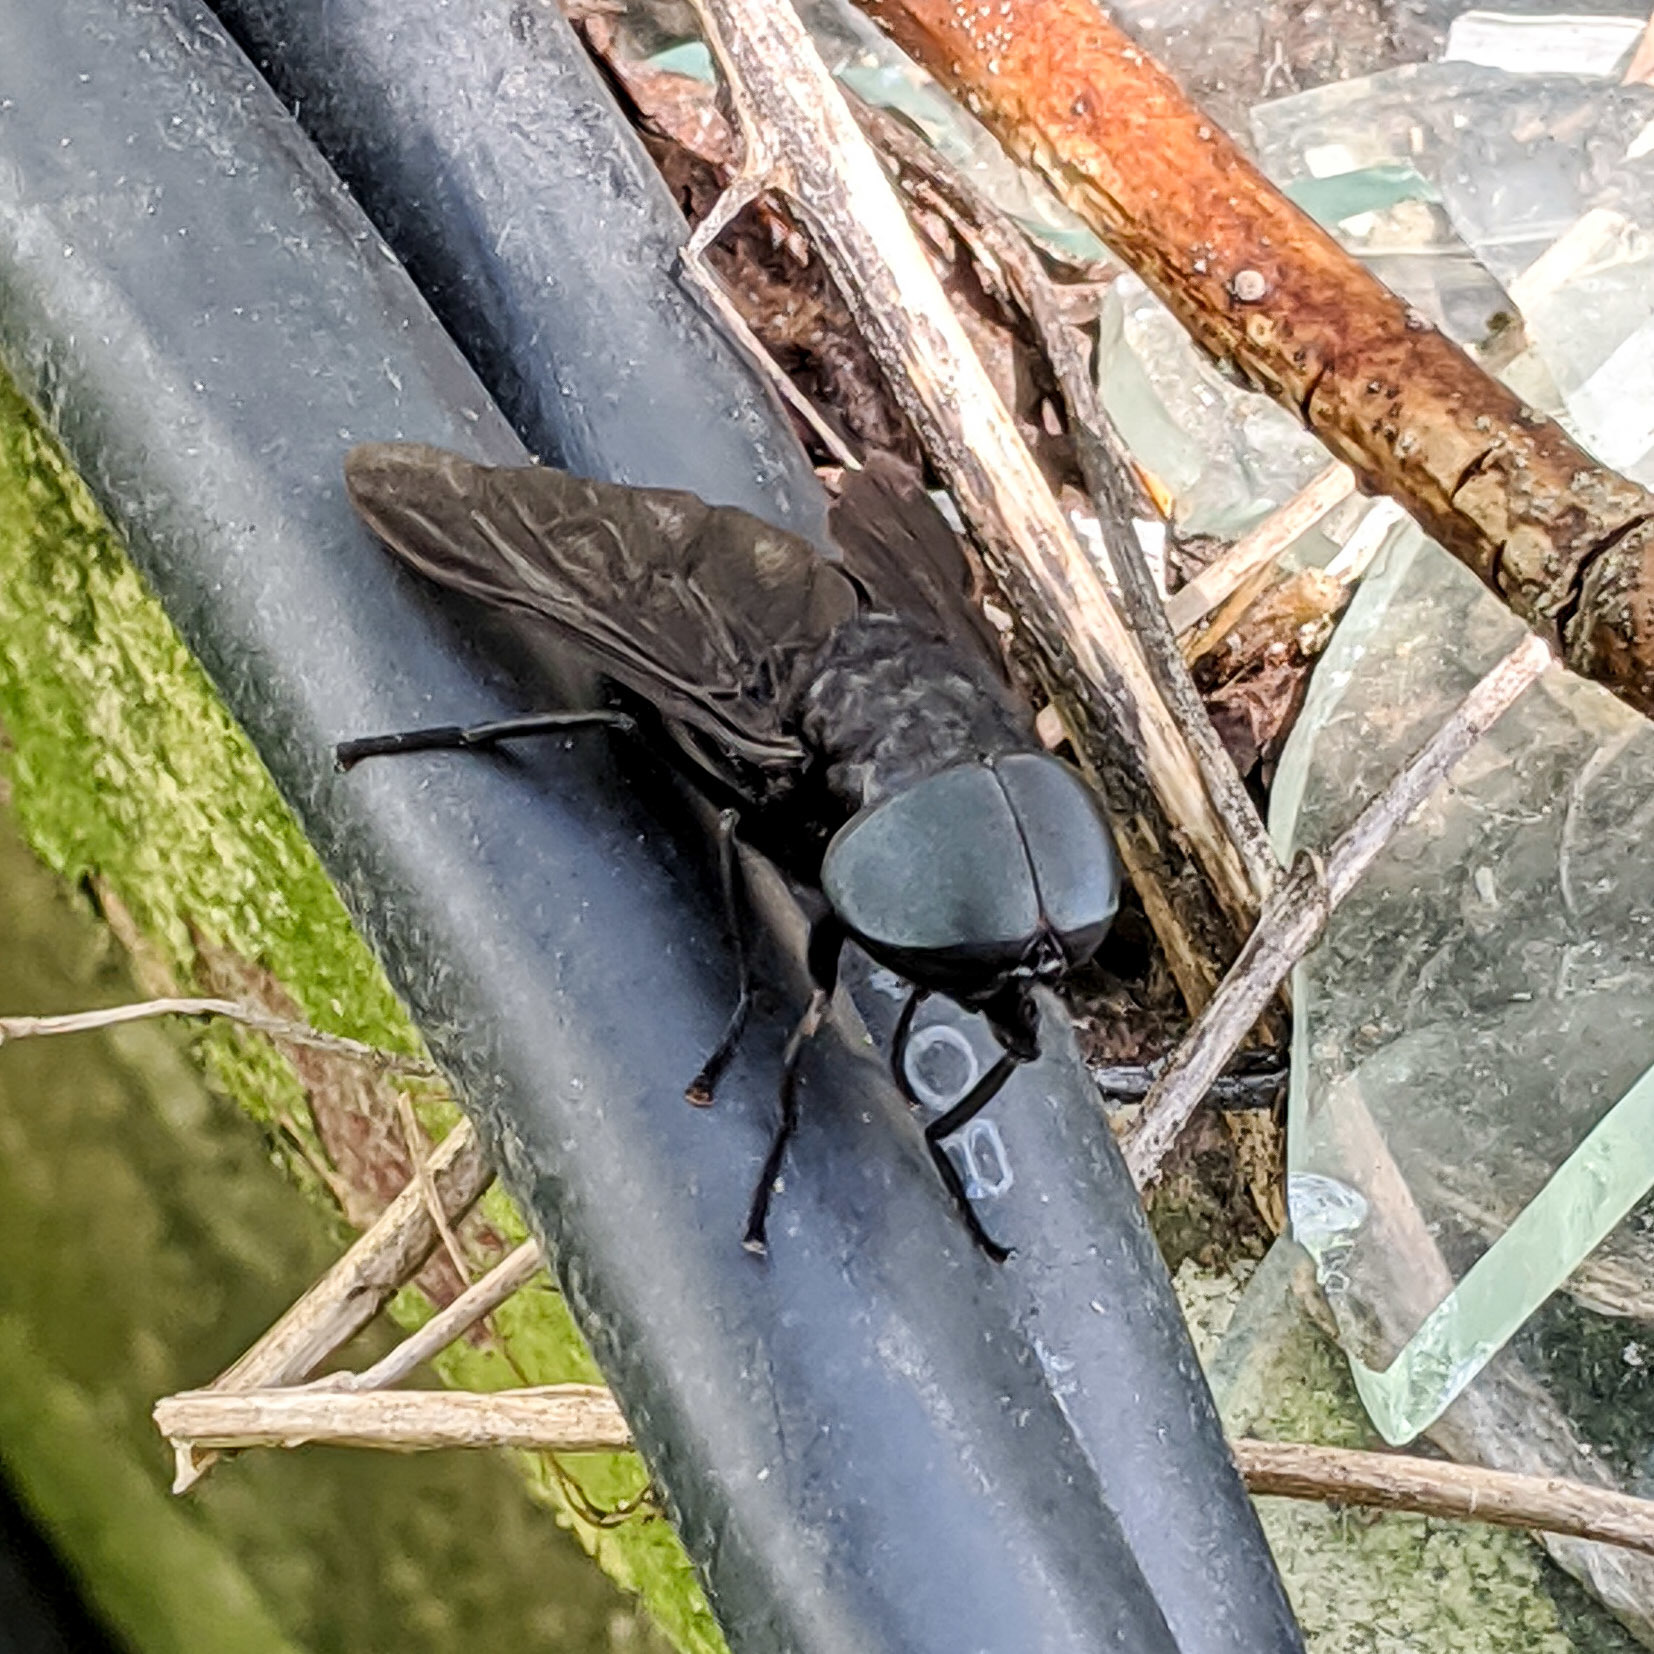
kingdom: Animalia
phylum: Arthropoda
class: Insecta
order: Diptera
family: Tabanidae
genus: Tabanus
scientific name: Tabanus atratus
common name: Black horse fly
